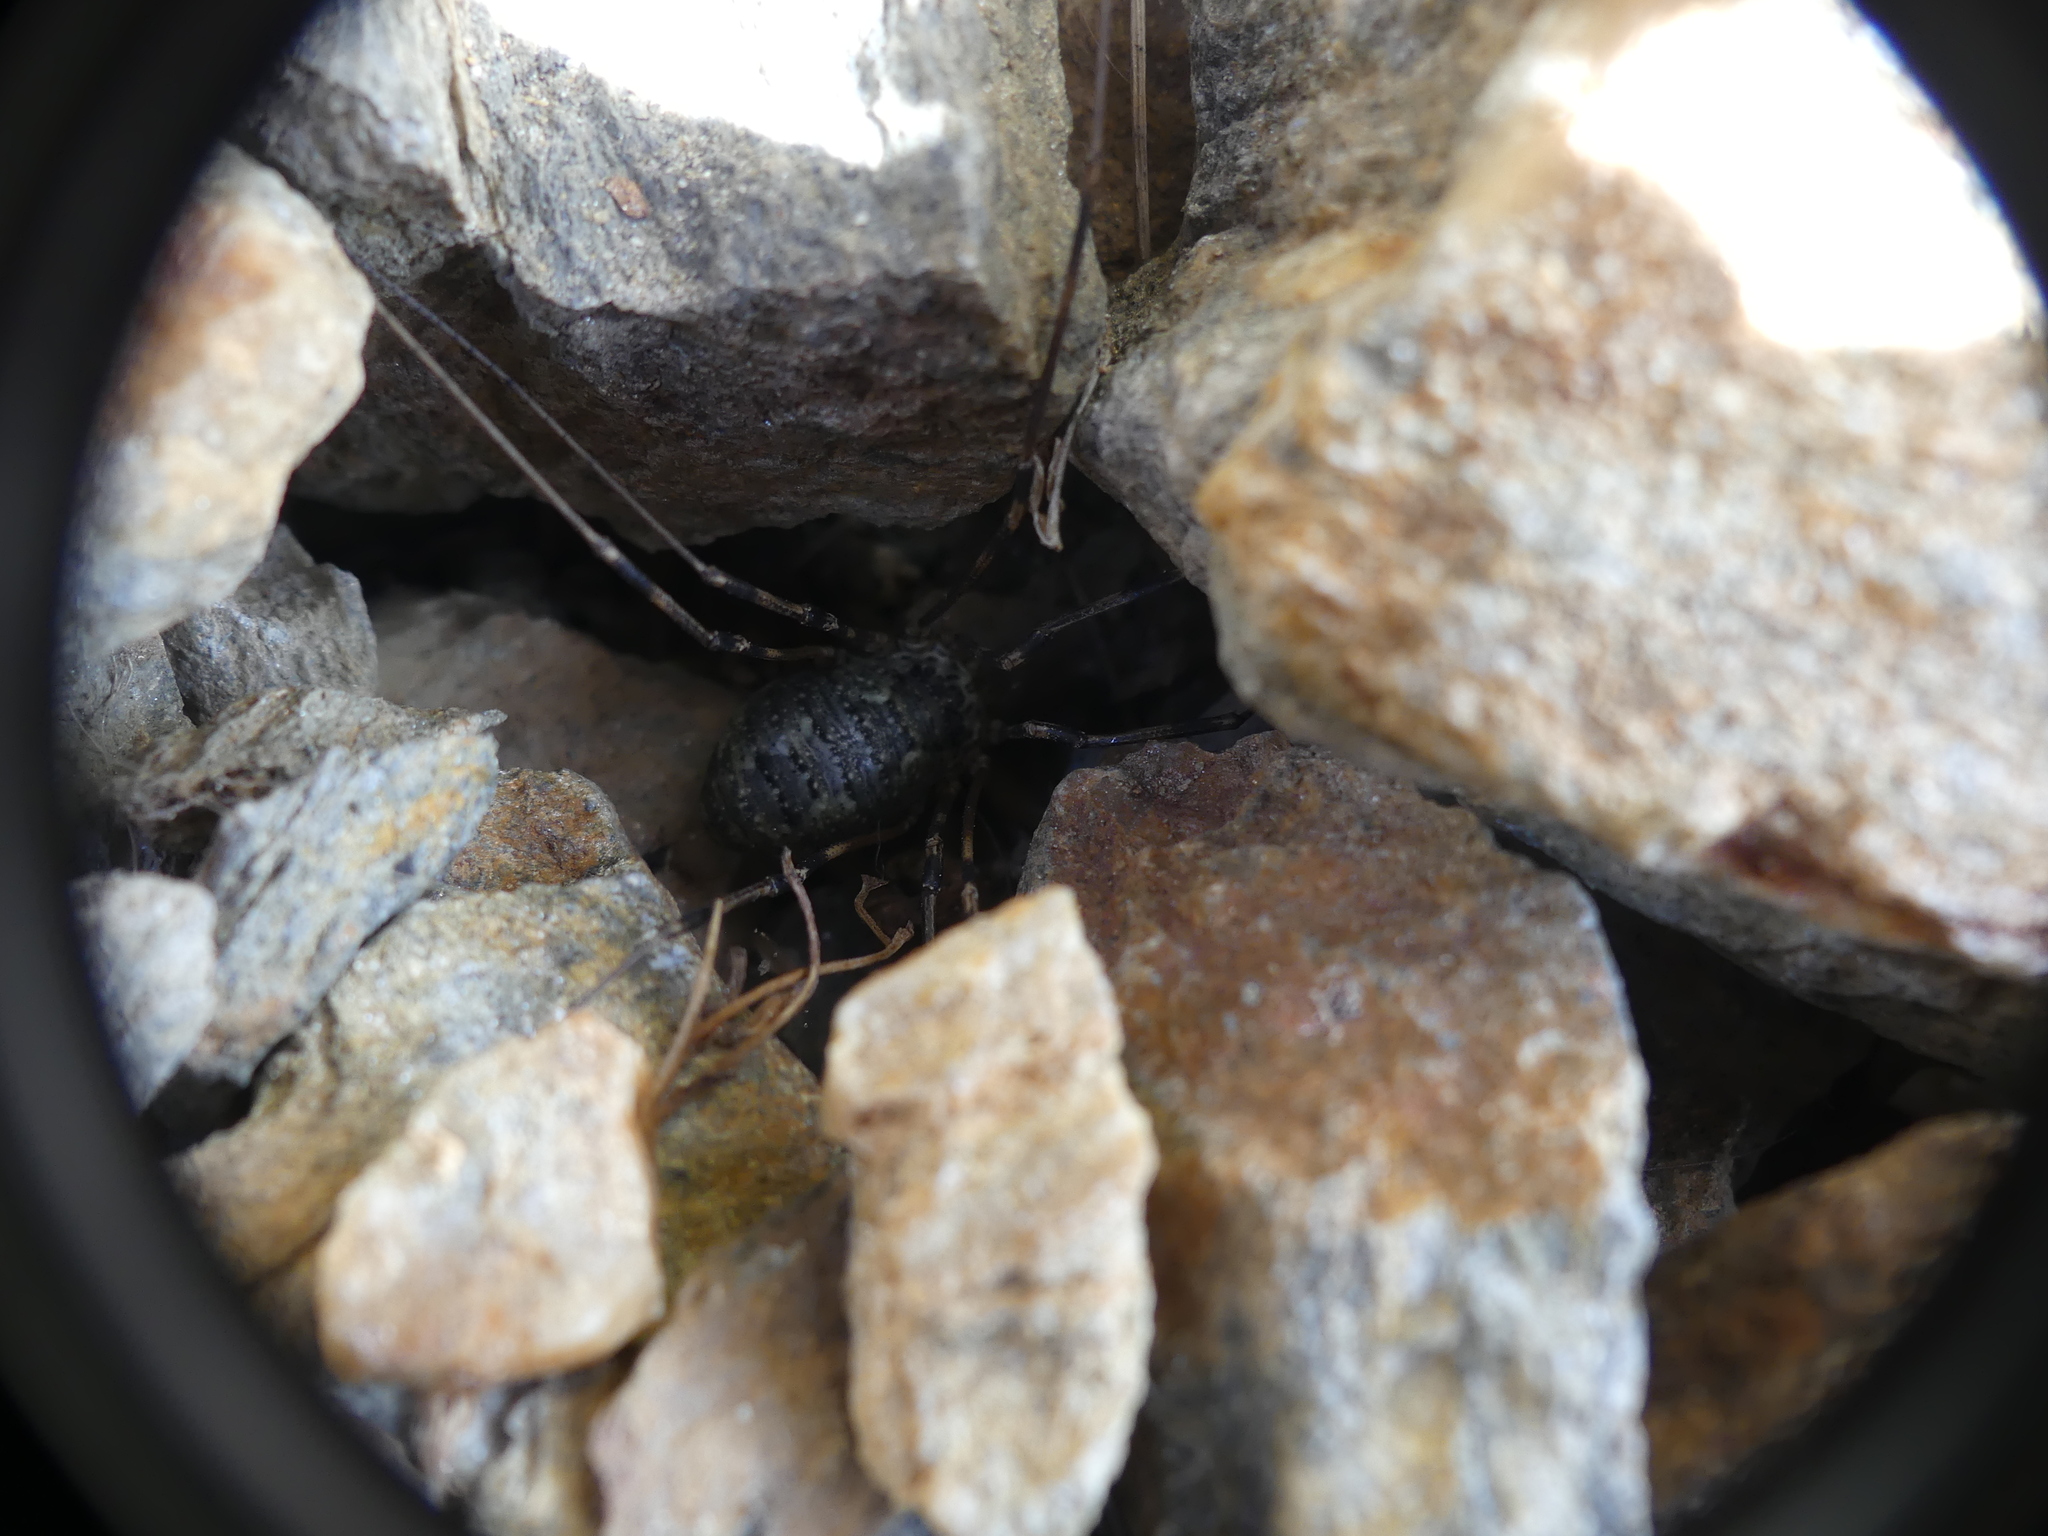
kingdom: Animalia
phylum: Arthropoda
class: Arachnida
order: Opiliones
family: Phalangiidae
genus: Mitopus
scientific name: Mitopus glacialis
